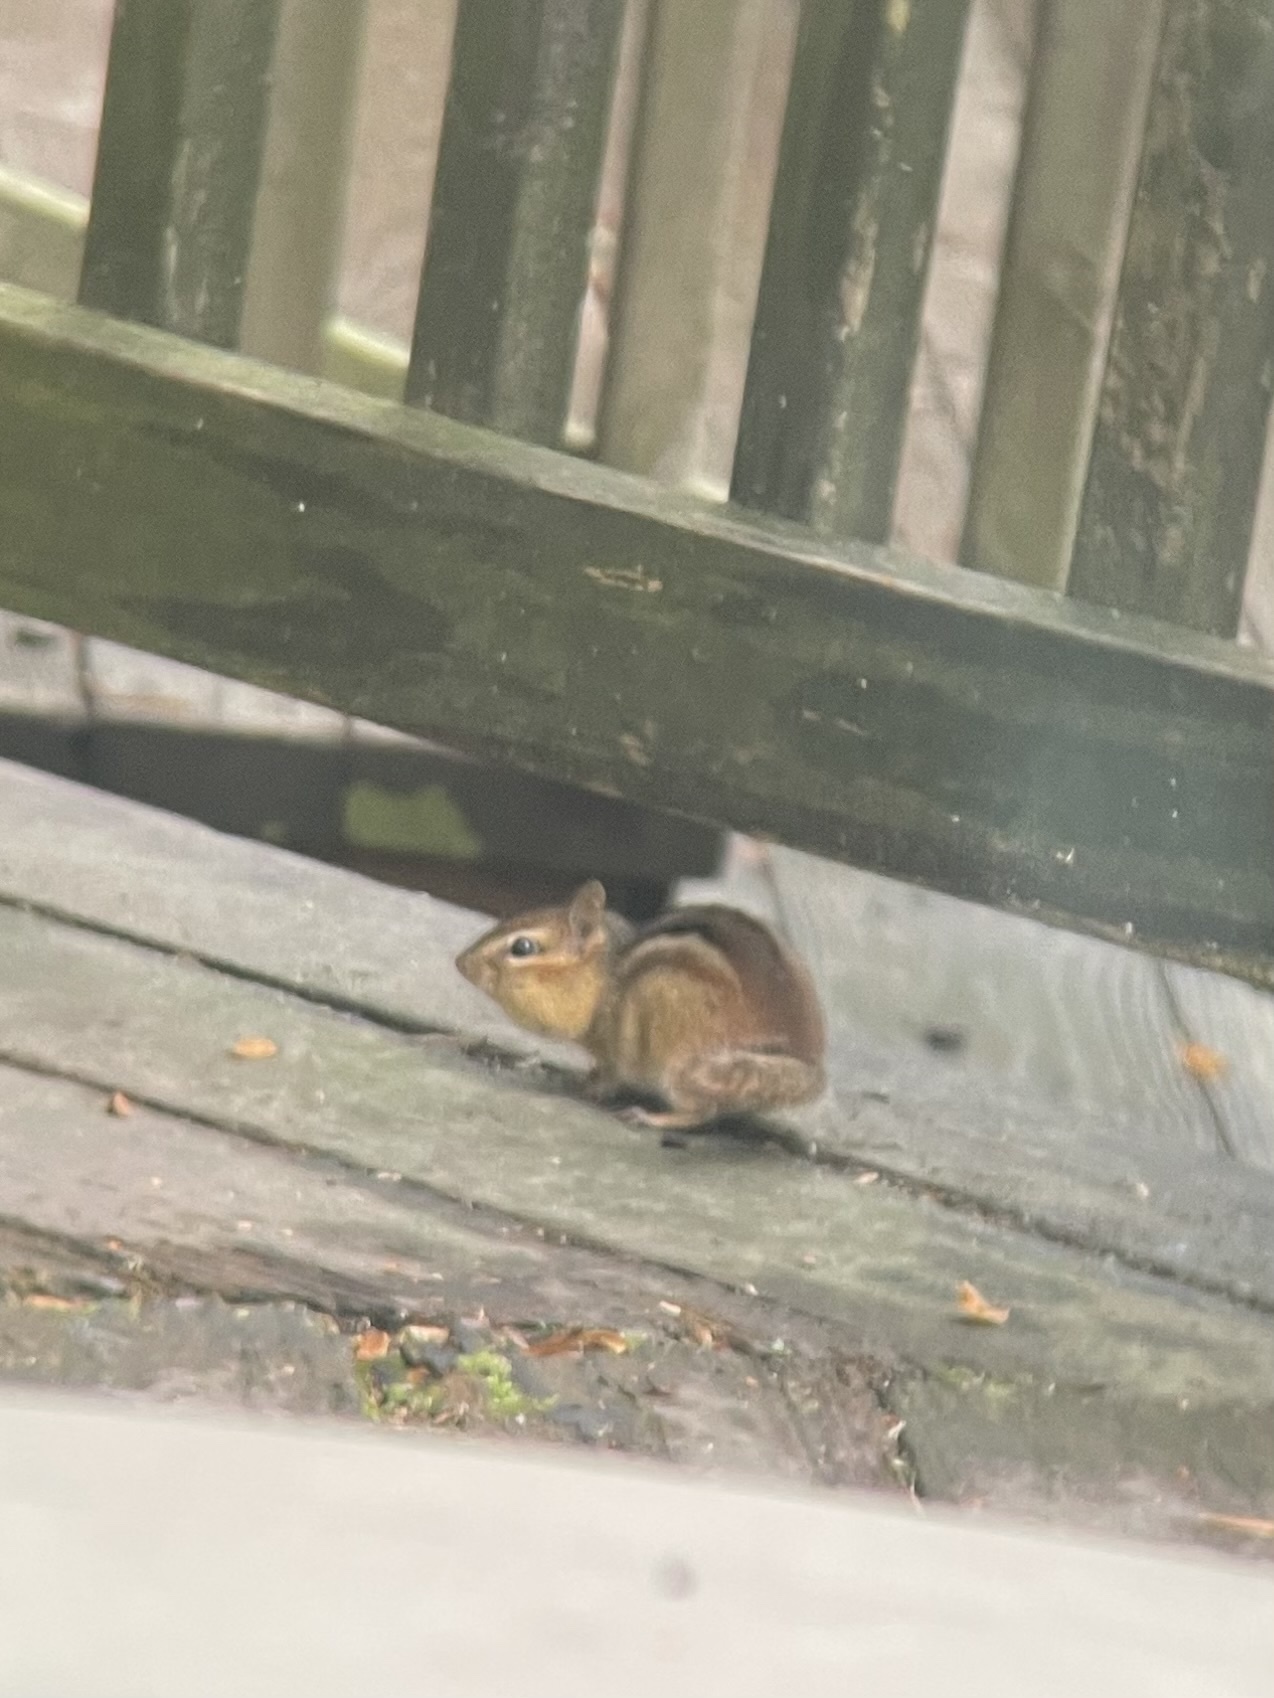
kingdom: Animalia
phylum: Chordata
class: Mammalia
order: Rodentia
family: Sciuridae
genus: Tamias
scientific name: Tamias striatus
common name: Eastern chipmunk
